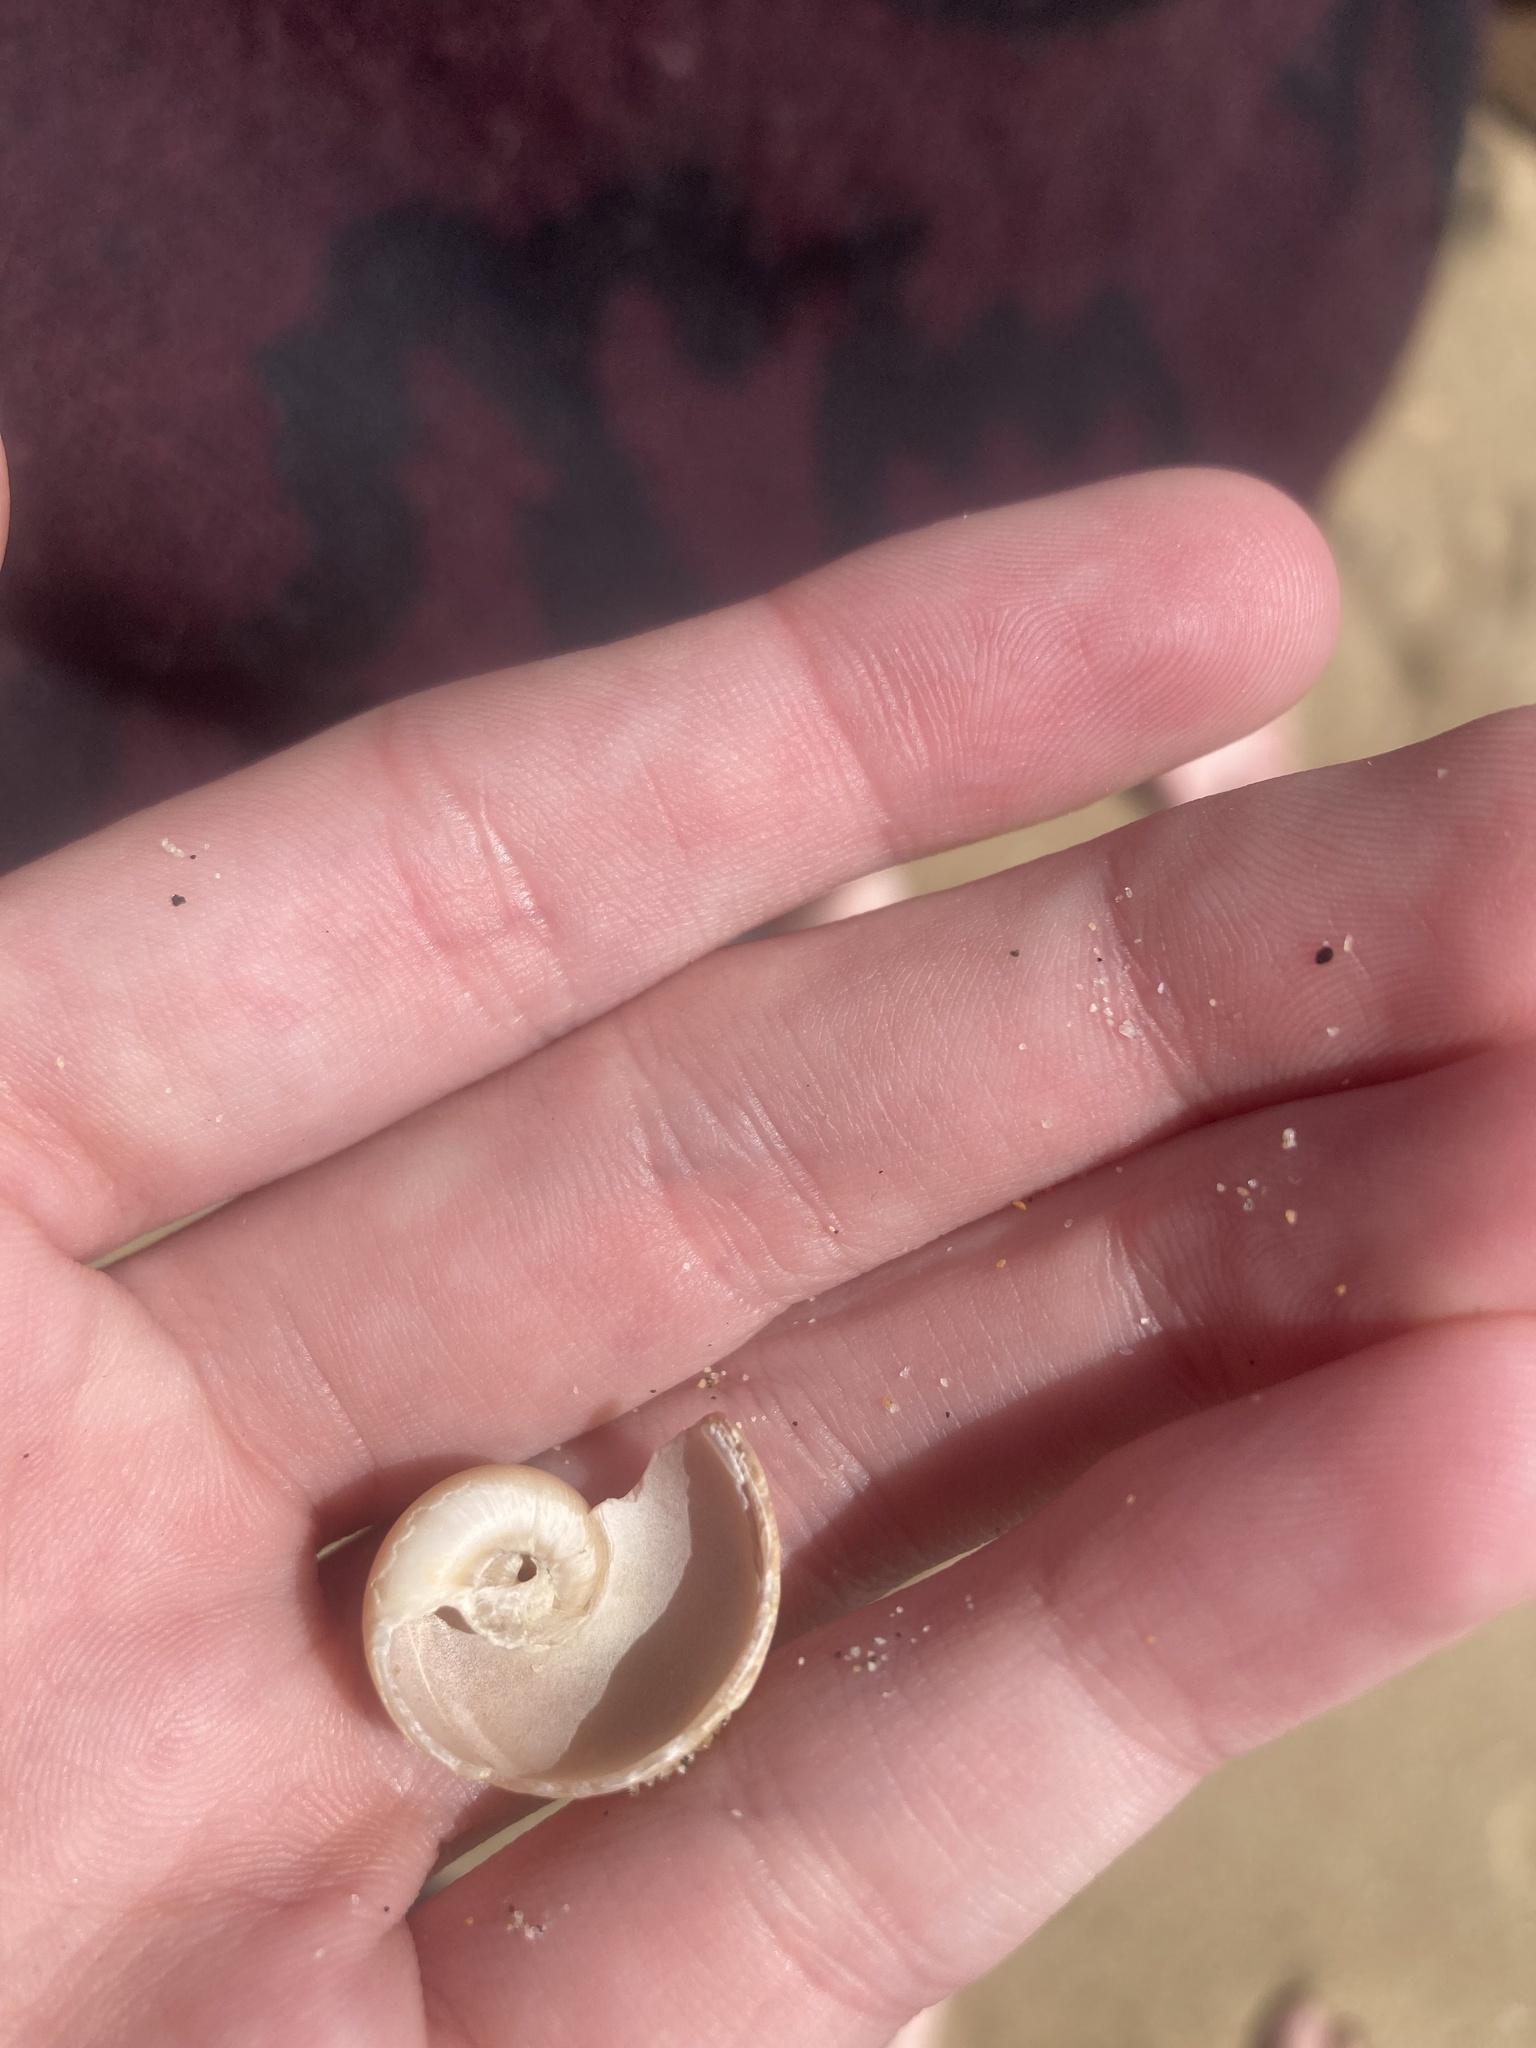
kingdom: Animalia
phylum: Mollusca
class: Gastropoda
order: Littorinimorpha
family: Naticidae
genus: Glossaulax
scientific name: Glossaulax reclusiana
